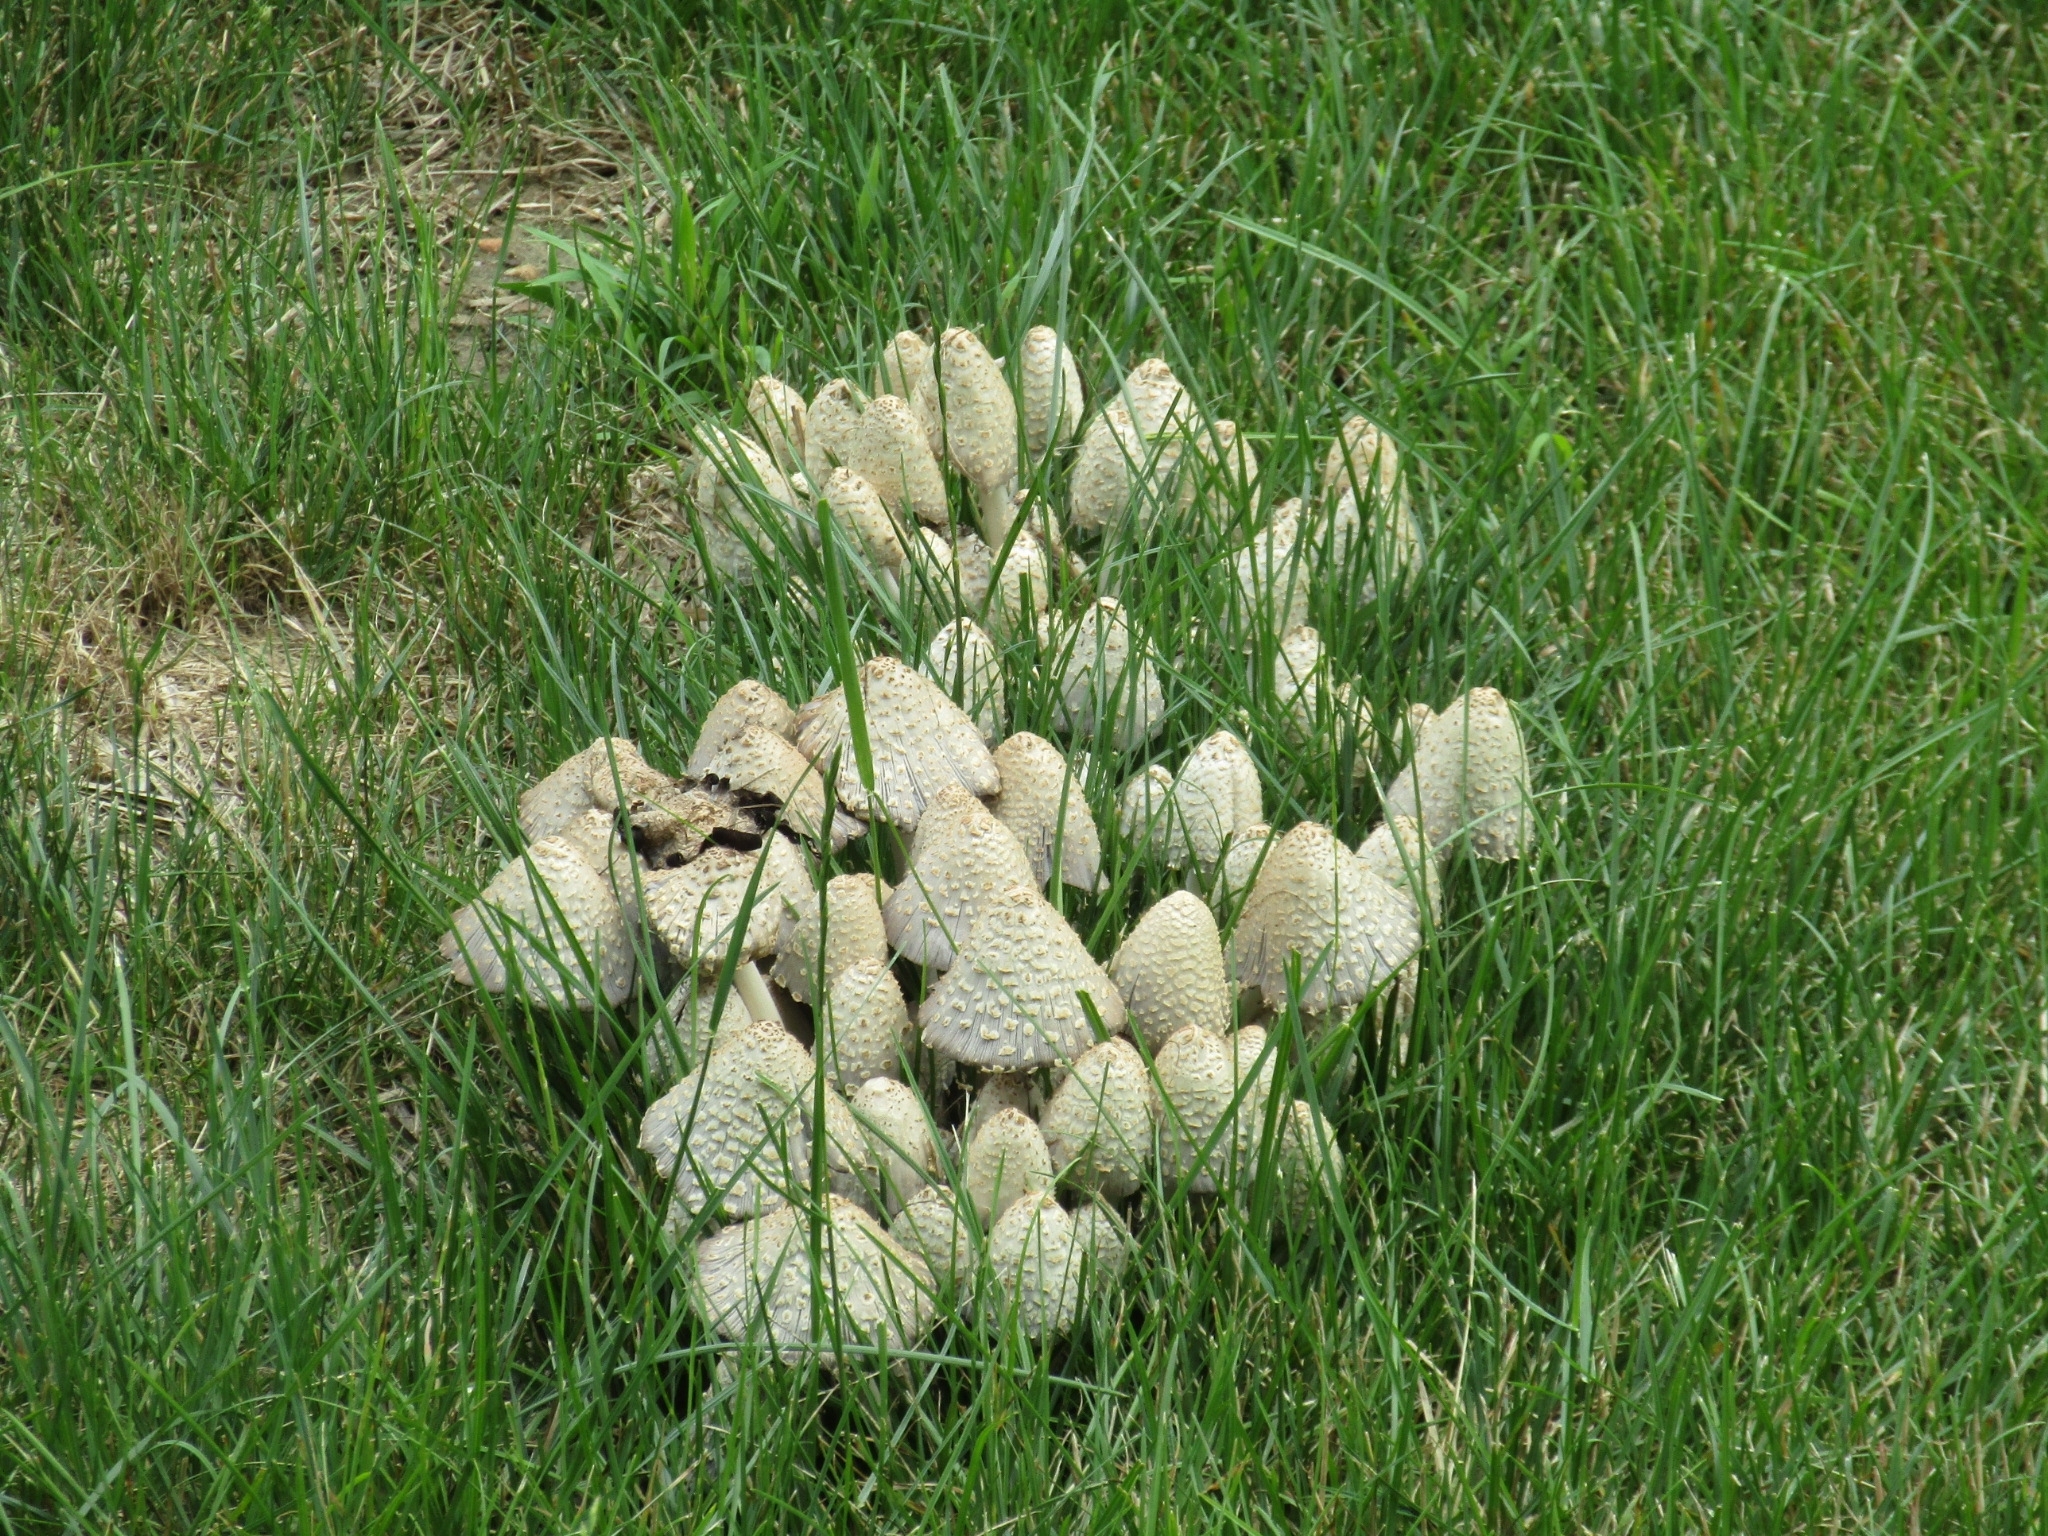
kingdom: Fungi
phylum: Basidiomycota
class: Agaricomycetes
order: Agaricales
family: Psathyrellaceae
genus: Coprinopsis
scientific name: Coprinopsis variegata
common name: Scaly ink cap
